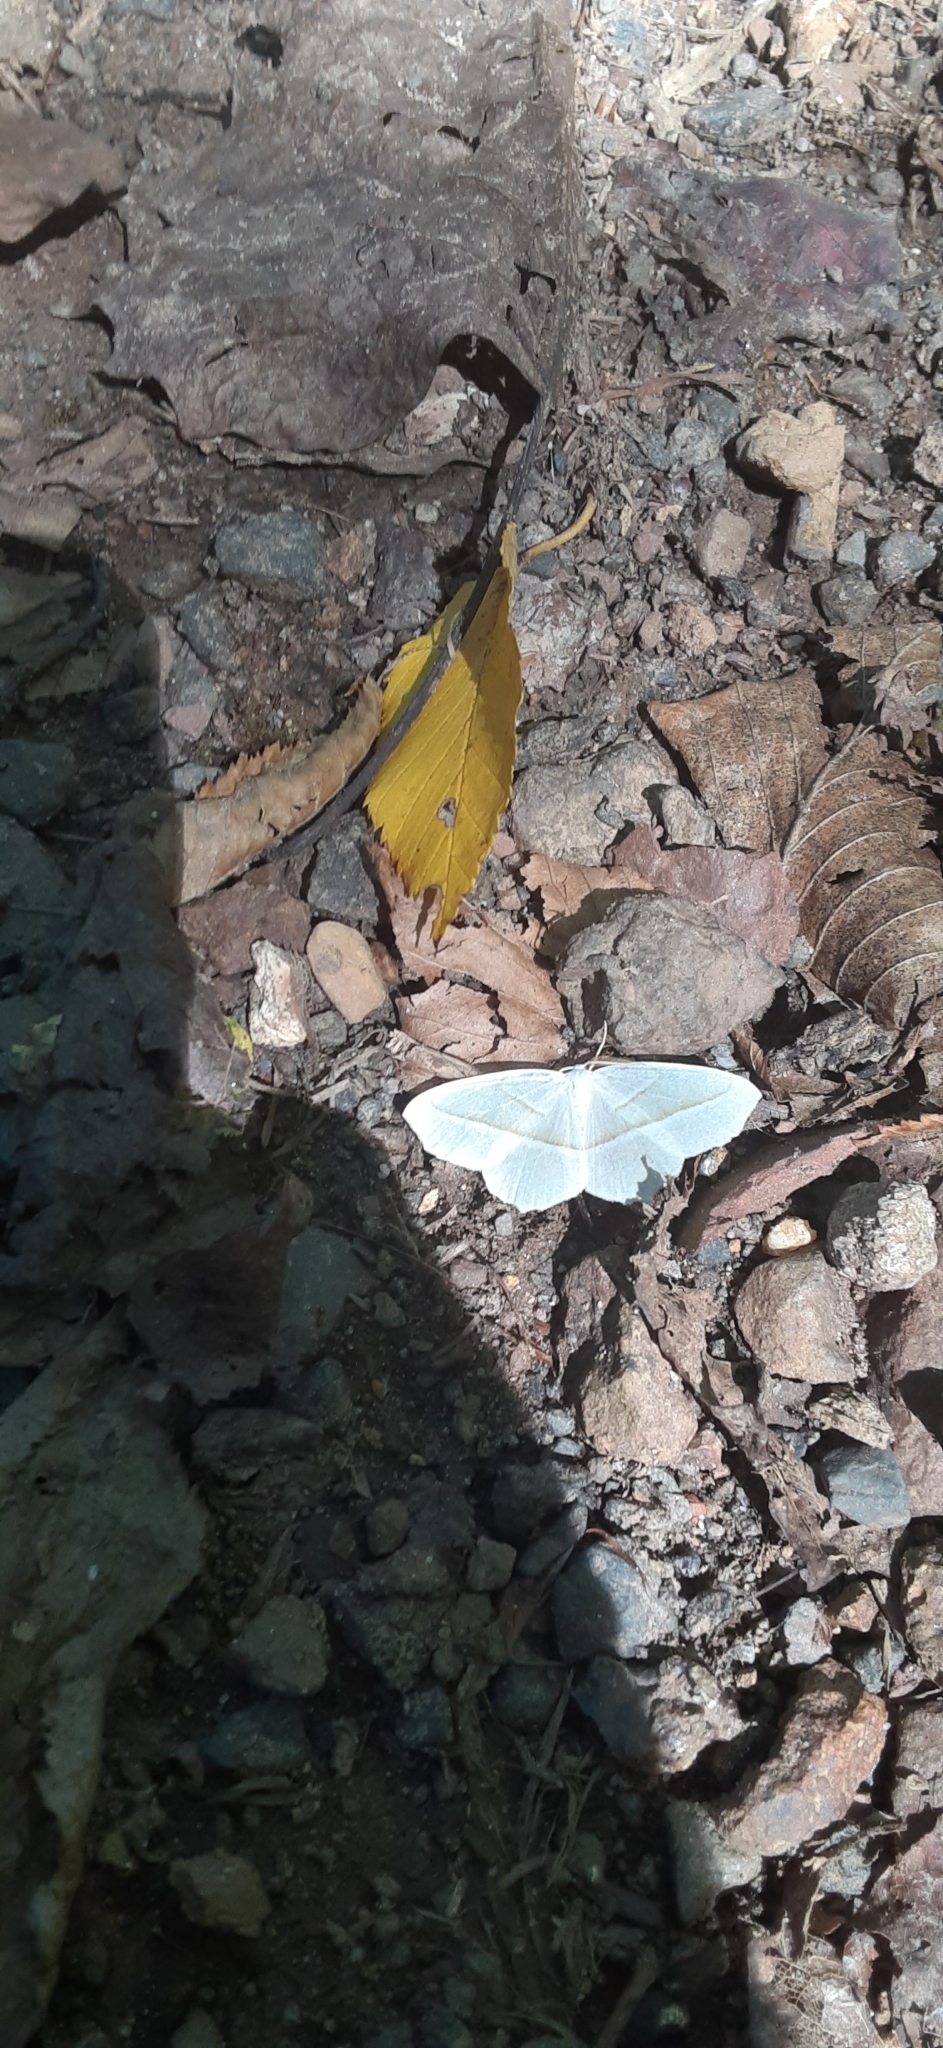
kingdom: Animalia
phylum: Arthropoda
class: Insecta
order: Lepidoptera
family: Geometridae
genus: Campaea
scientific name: Campaea perlata
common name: Fringed looper
